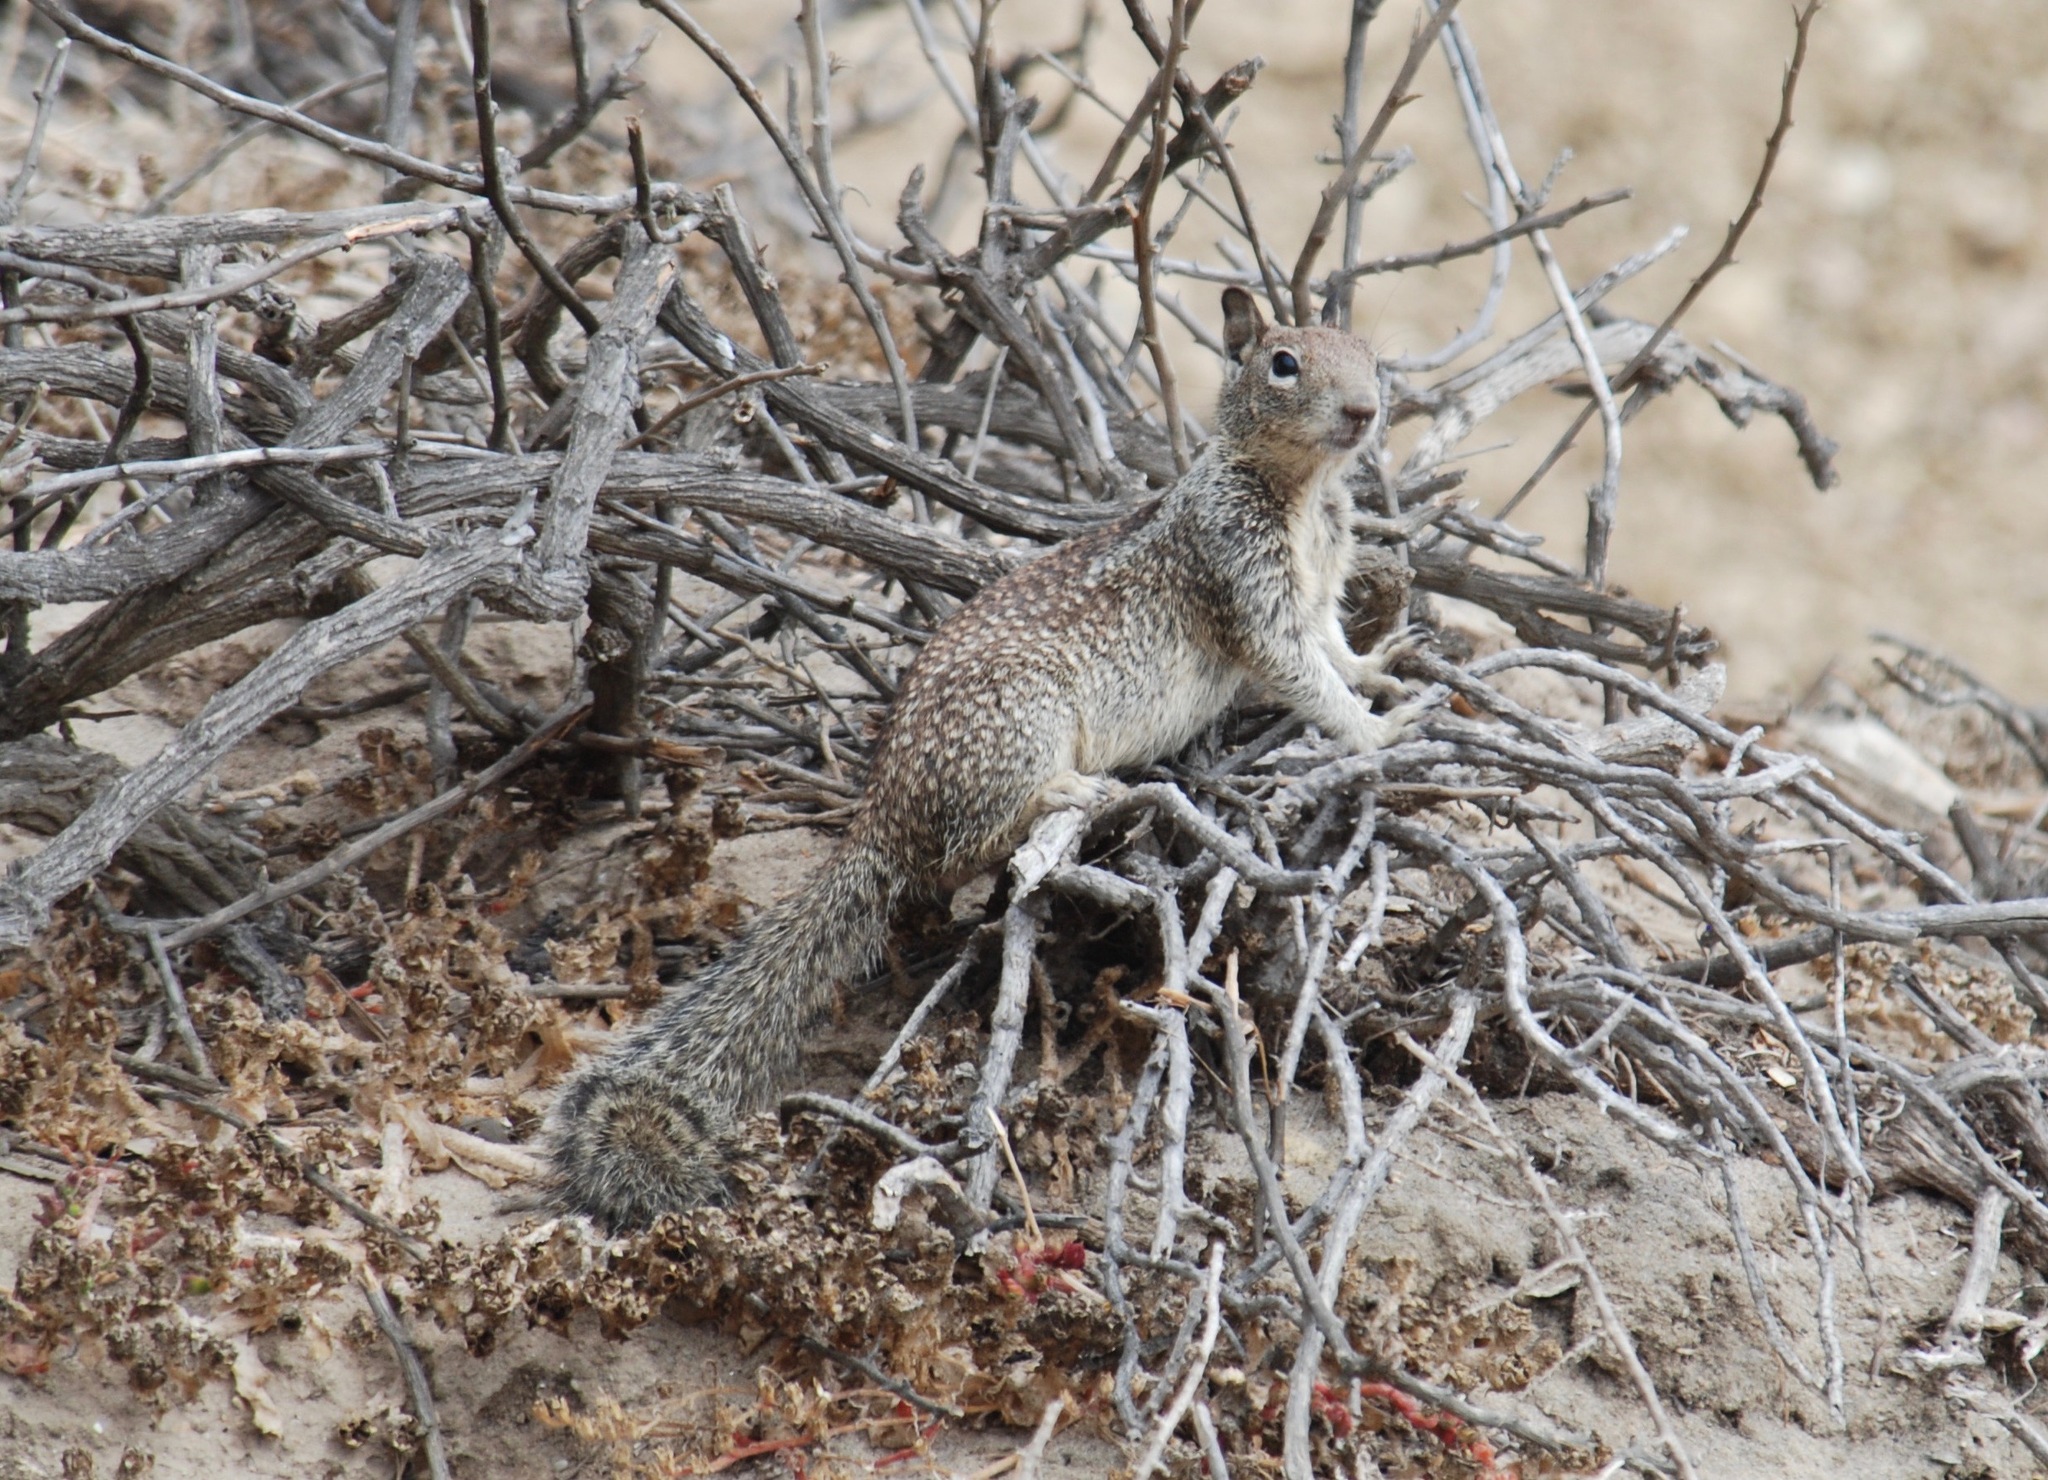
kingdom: Animalia
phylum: Chordata
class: Mammalia
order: Rodentia
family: Sciuridae
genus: Otospermophilus
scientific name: Otospermophilus beecheyi
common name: California ground squirrel
